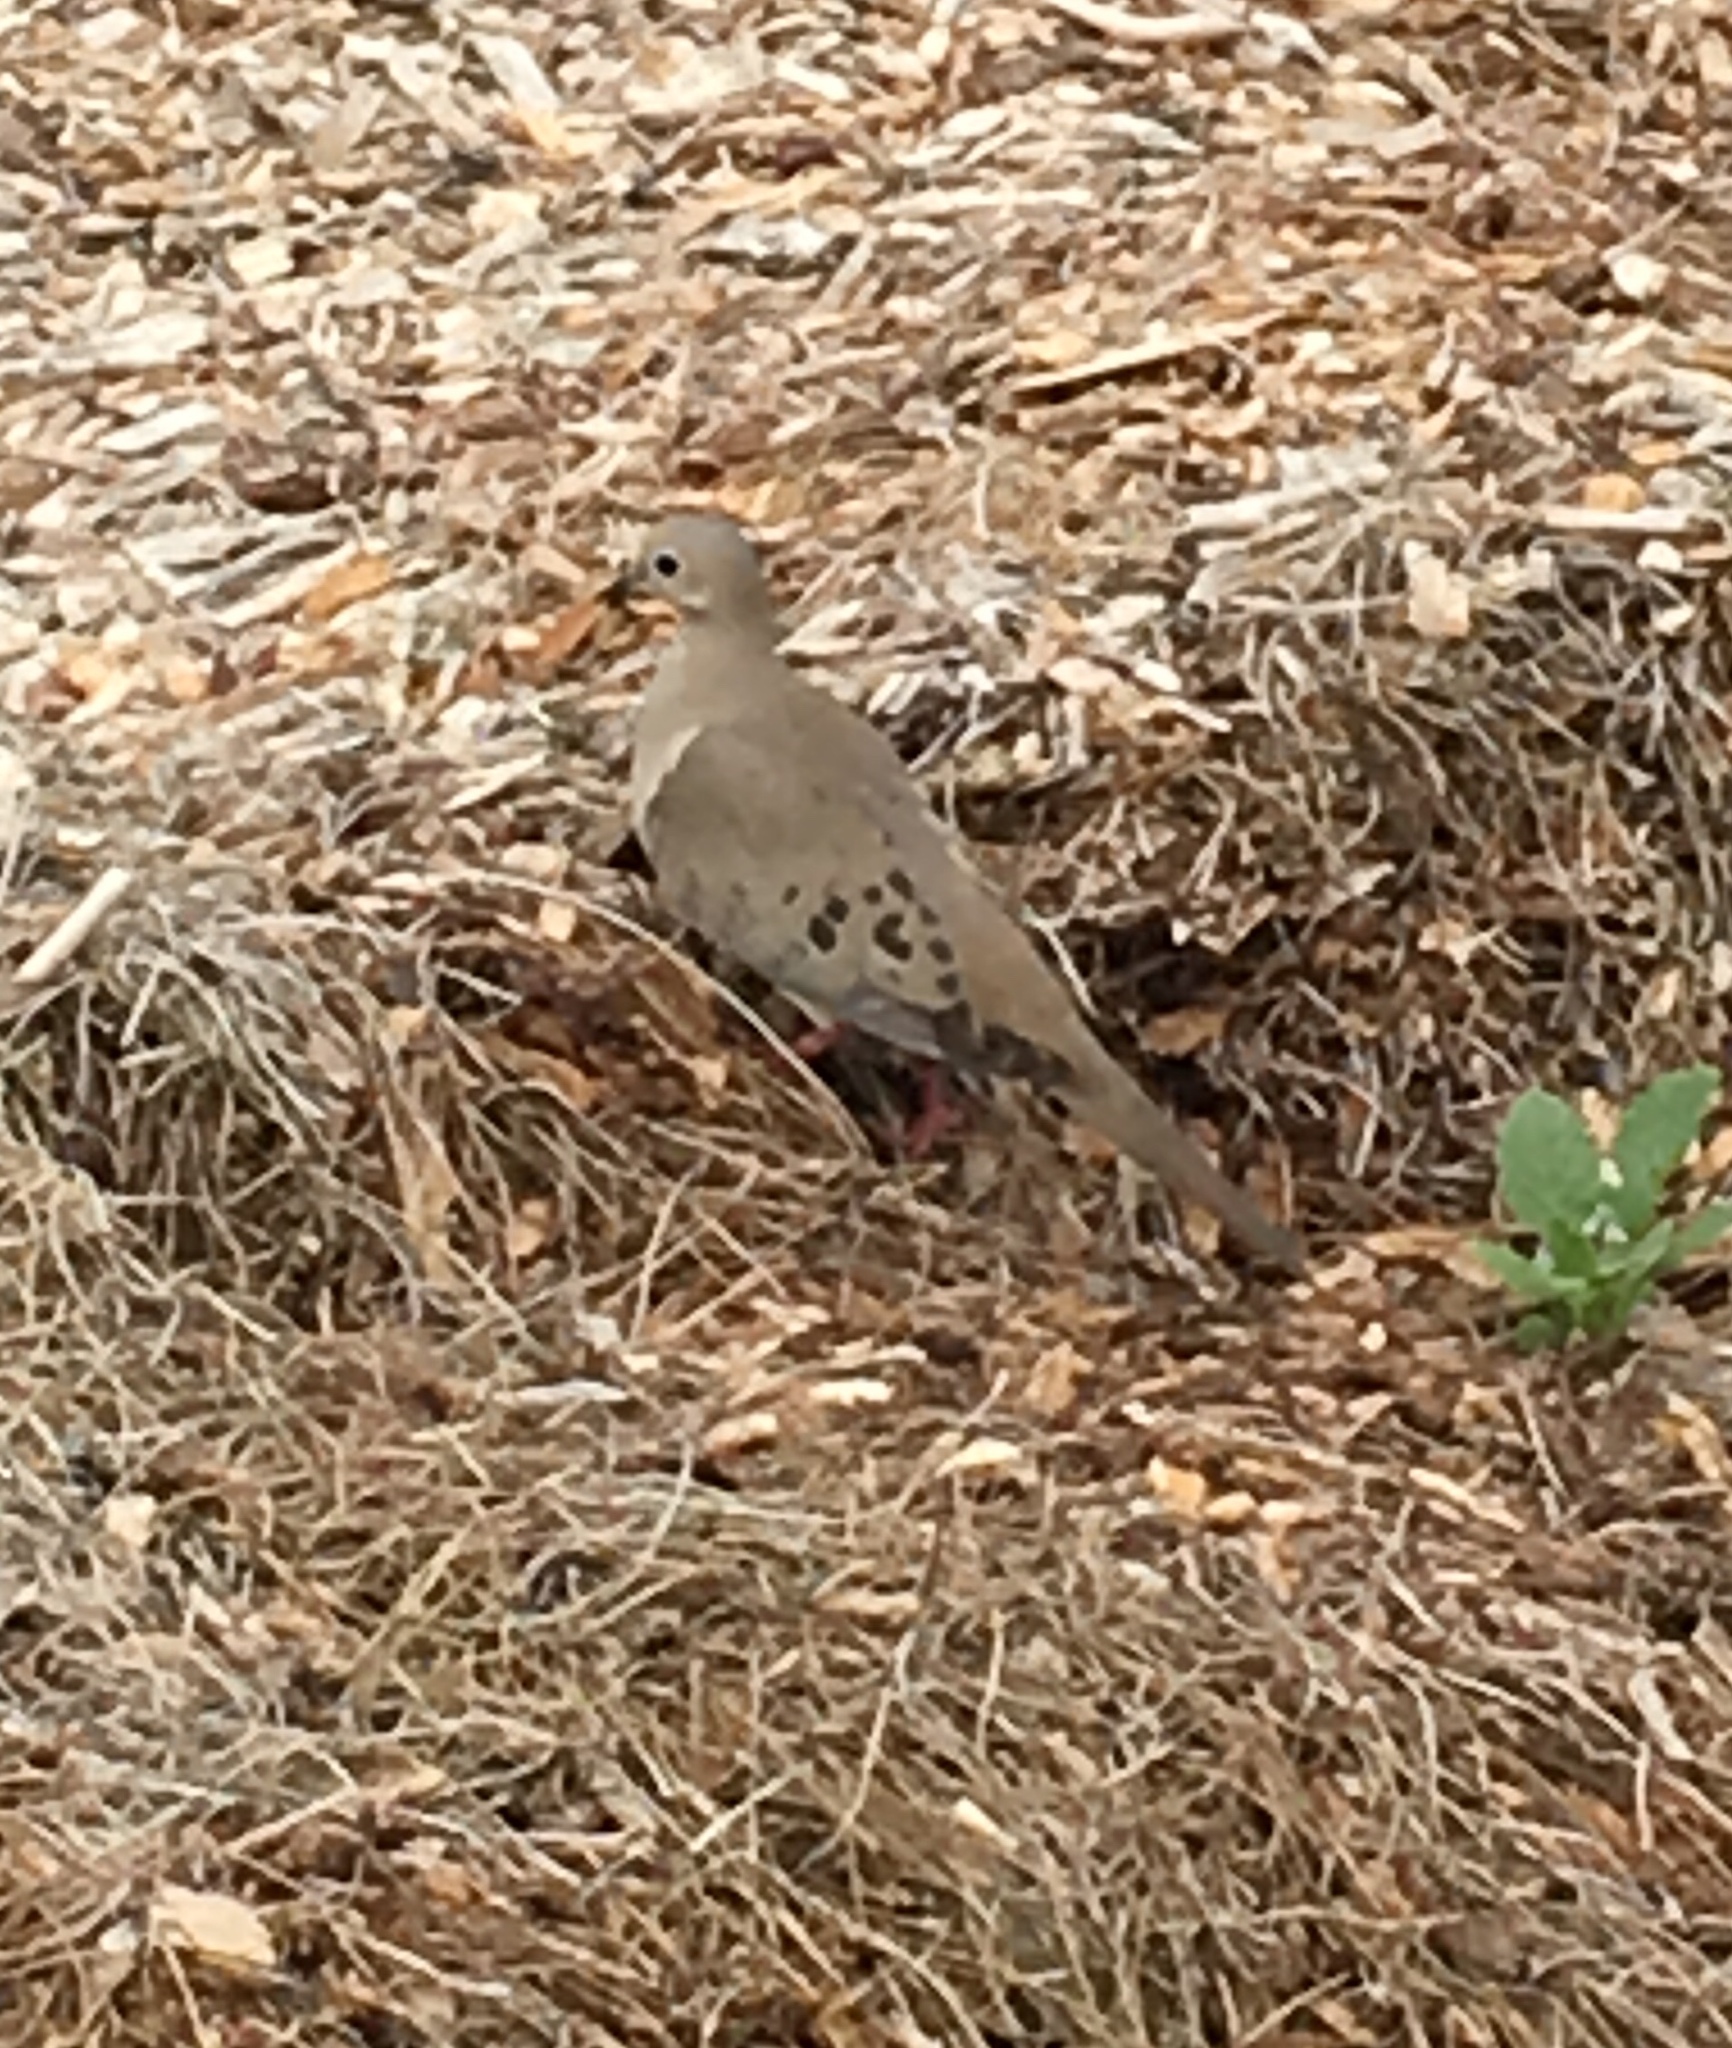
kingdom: Animalia
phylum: Chordata
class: Aves
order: Columbiformes
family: Columbidae
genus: Zenaida
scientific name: Zenaida macroura
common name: Mourning dove
